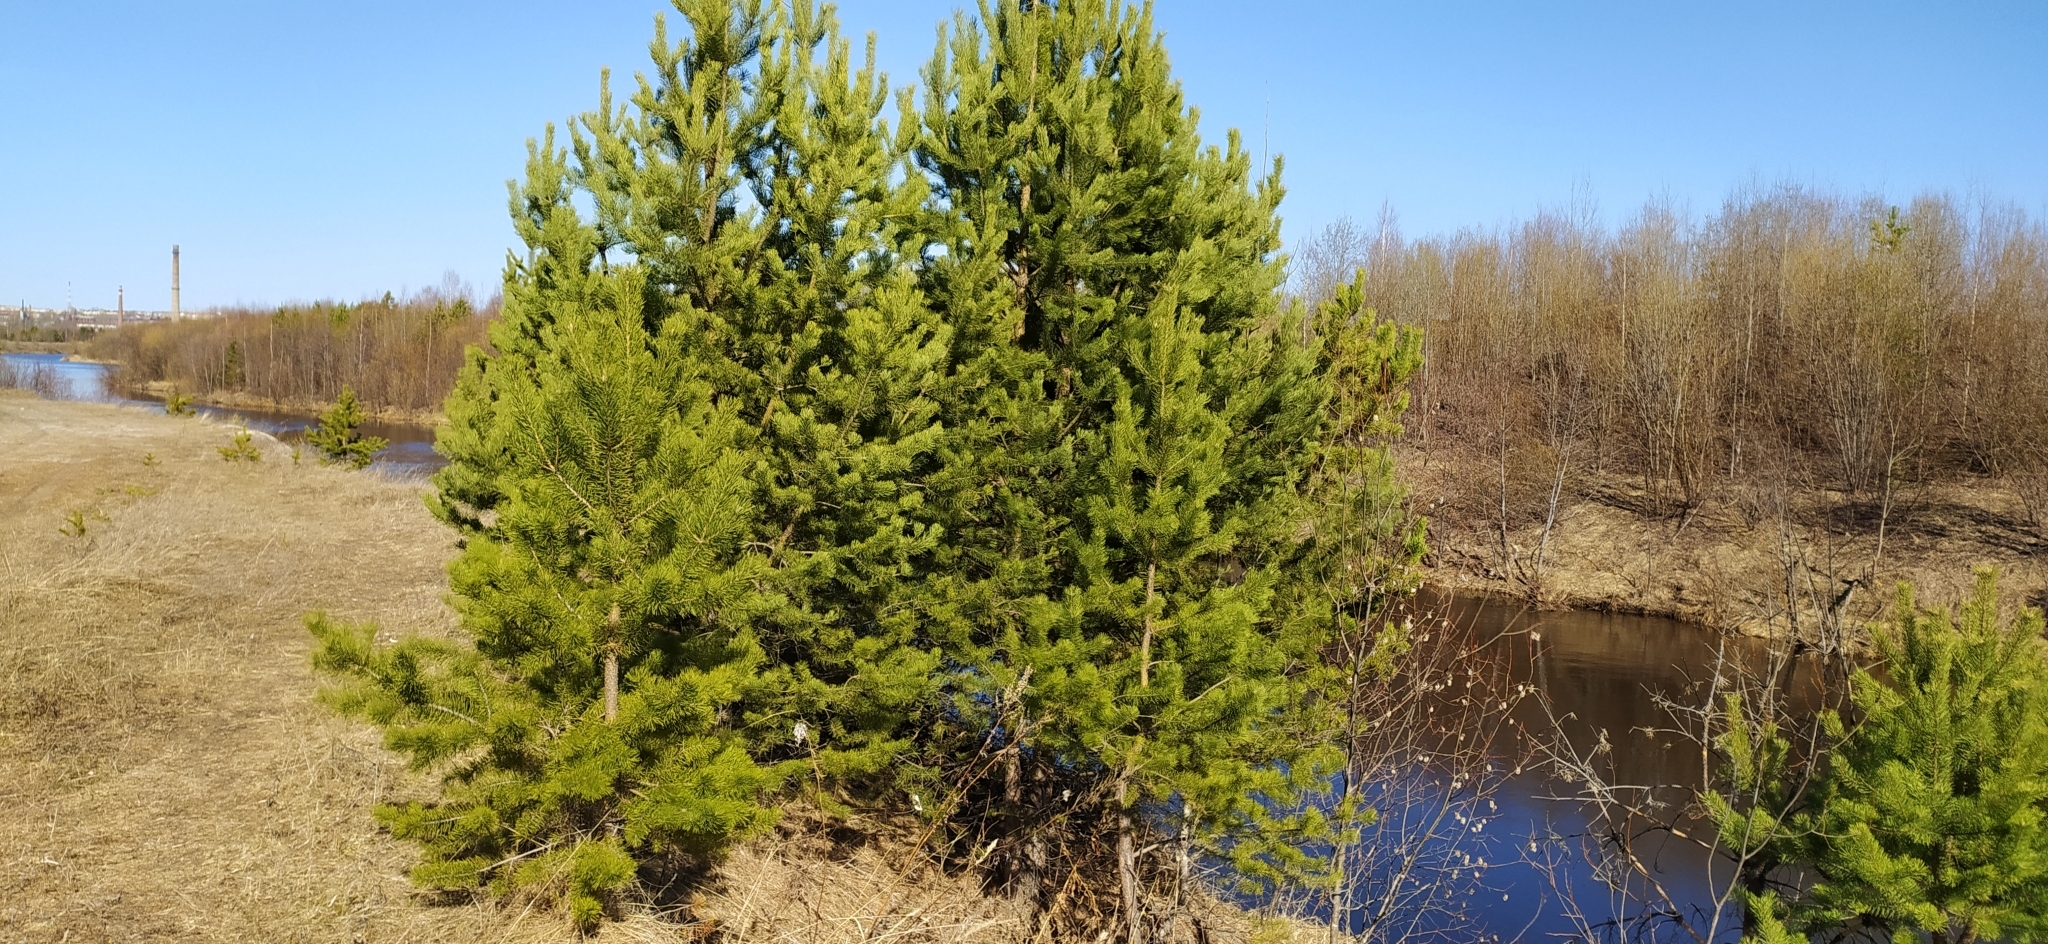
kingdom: Plantae
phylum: Tracheophyta
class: Pinopsida
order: Pinales
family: Pinaceae
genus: Pinus
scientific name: Pinus sylvestris
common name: Scots pine
